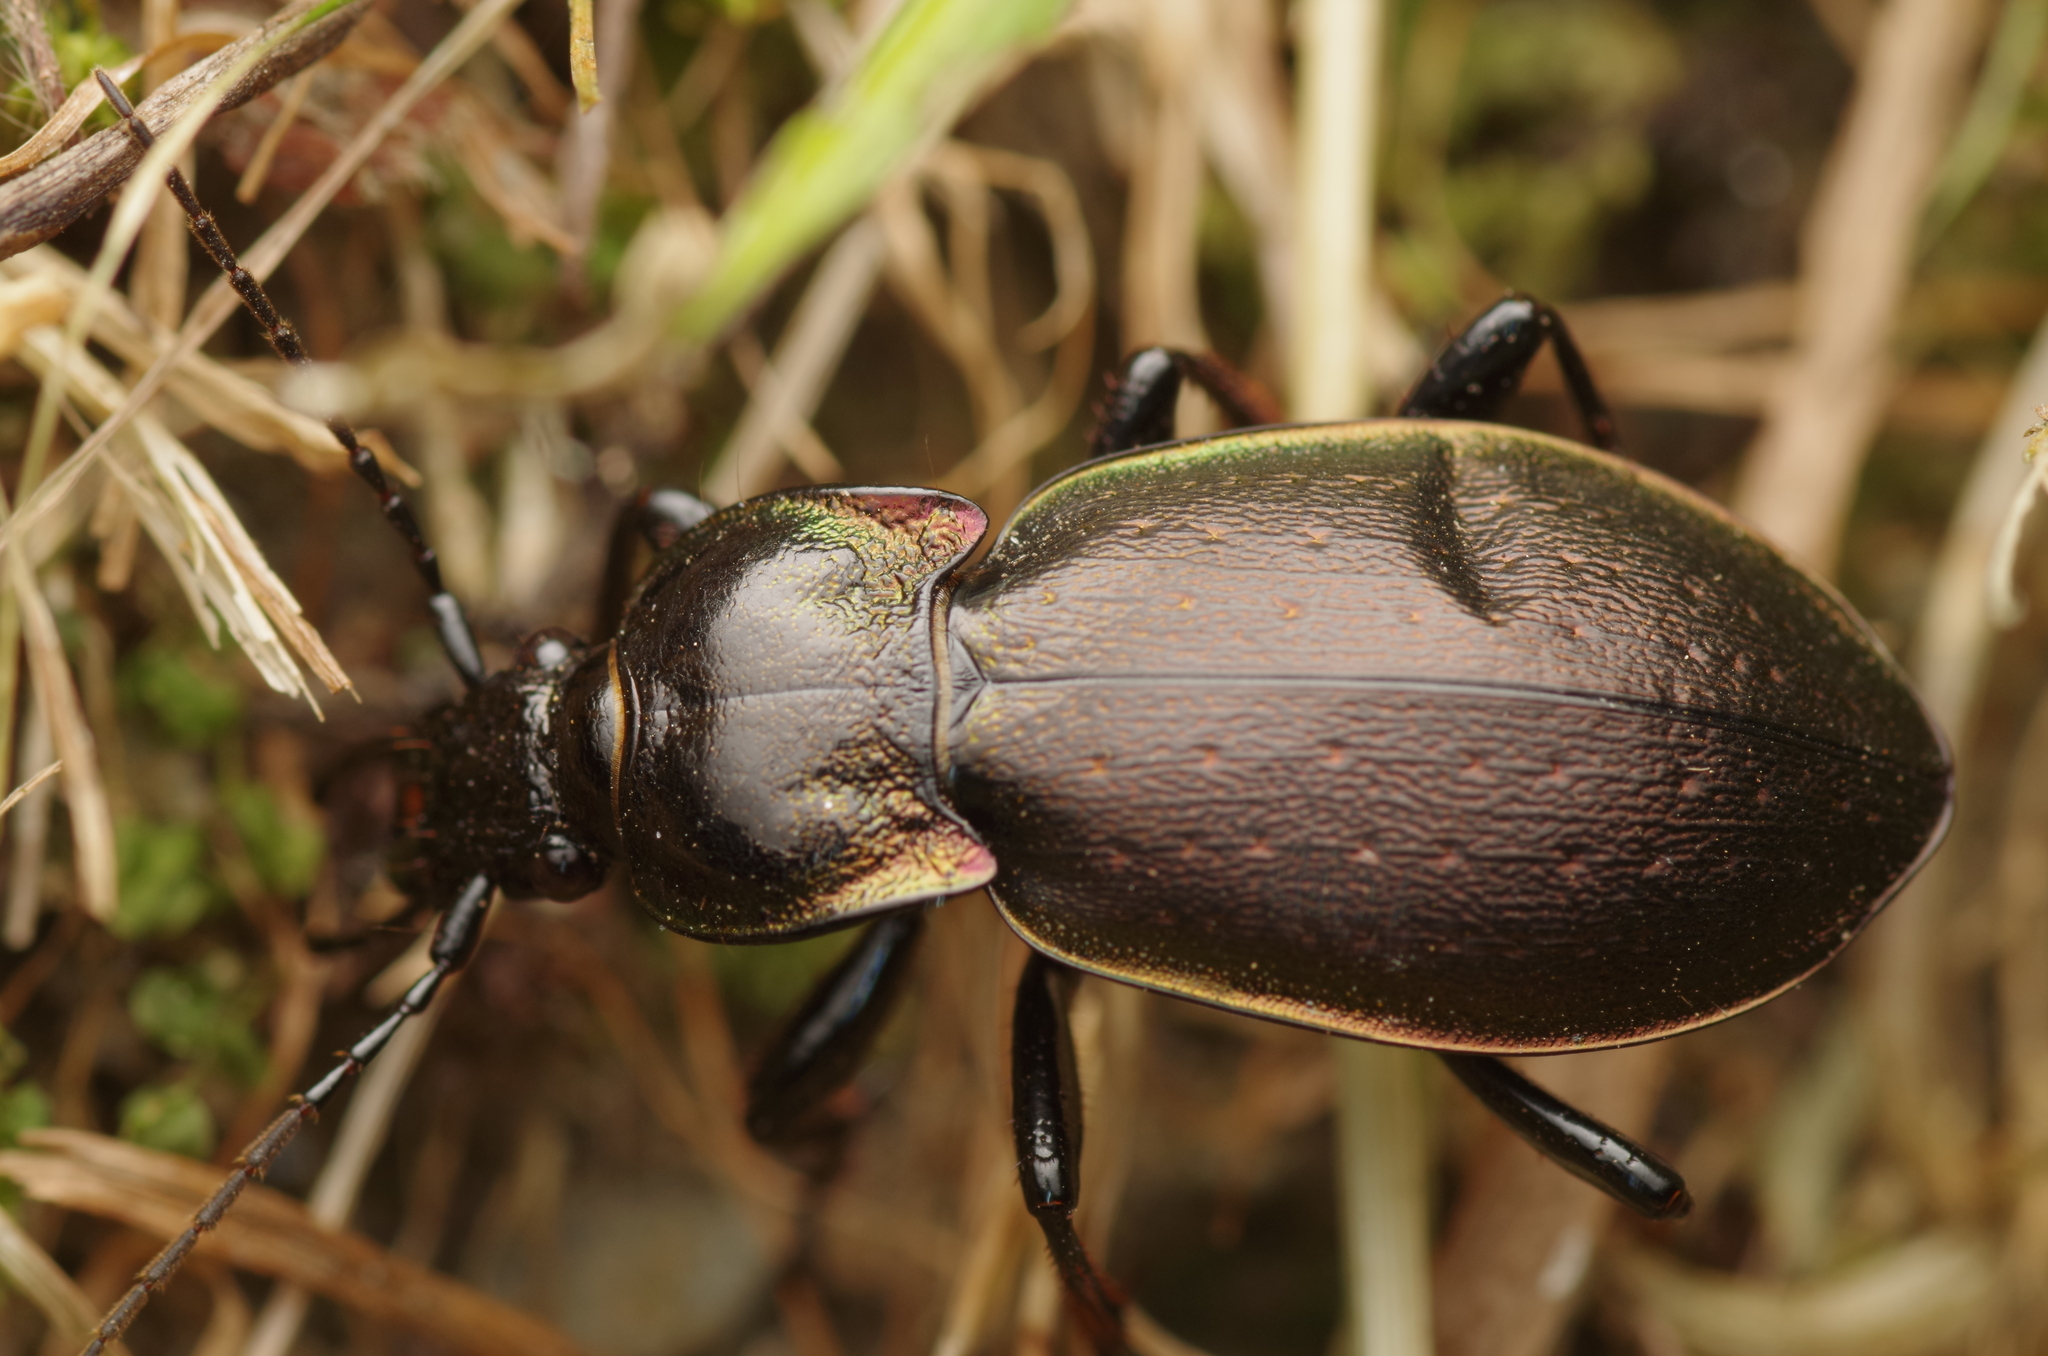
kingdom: Animalia
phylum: Arthropoda
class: Insecta
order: Coleoptera
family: Carabidae
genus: Carabus
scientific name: Carabus nemoralis
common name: European ground beetle
